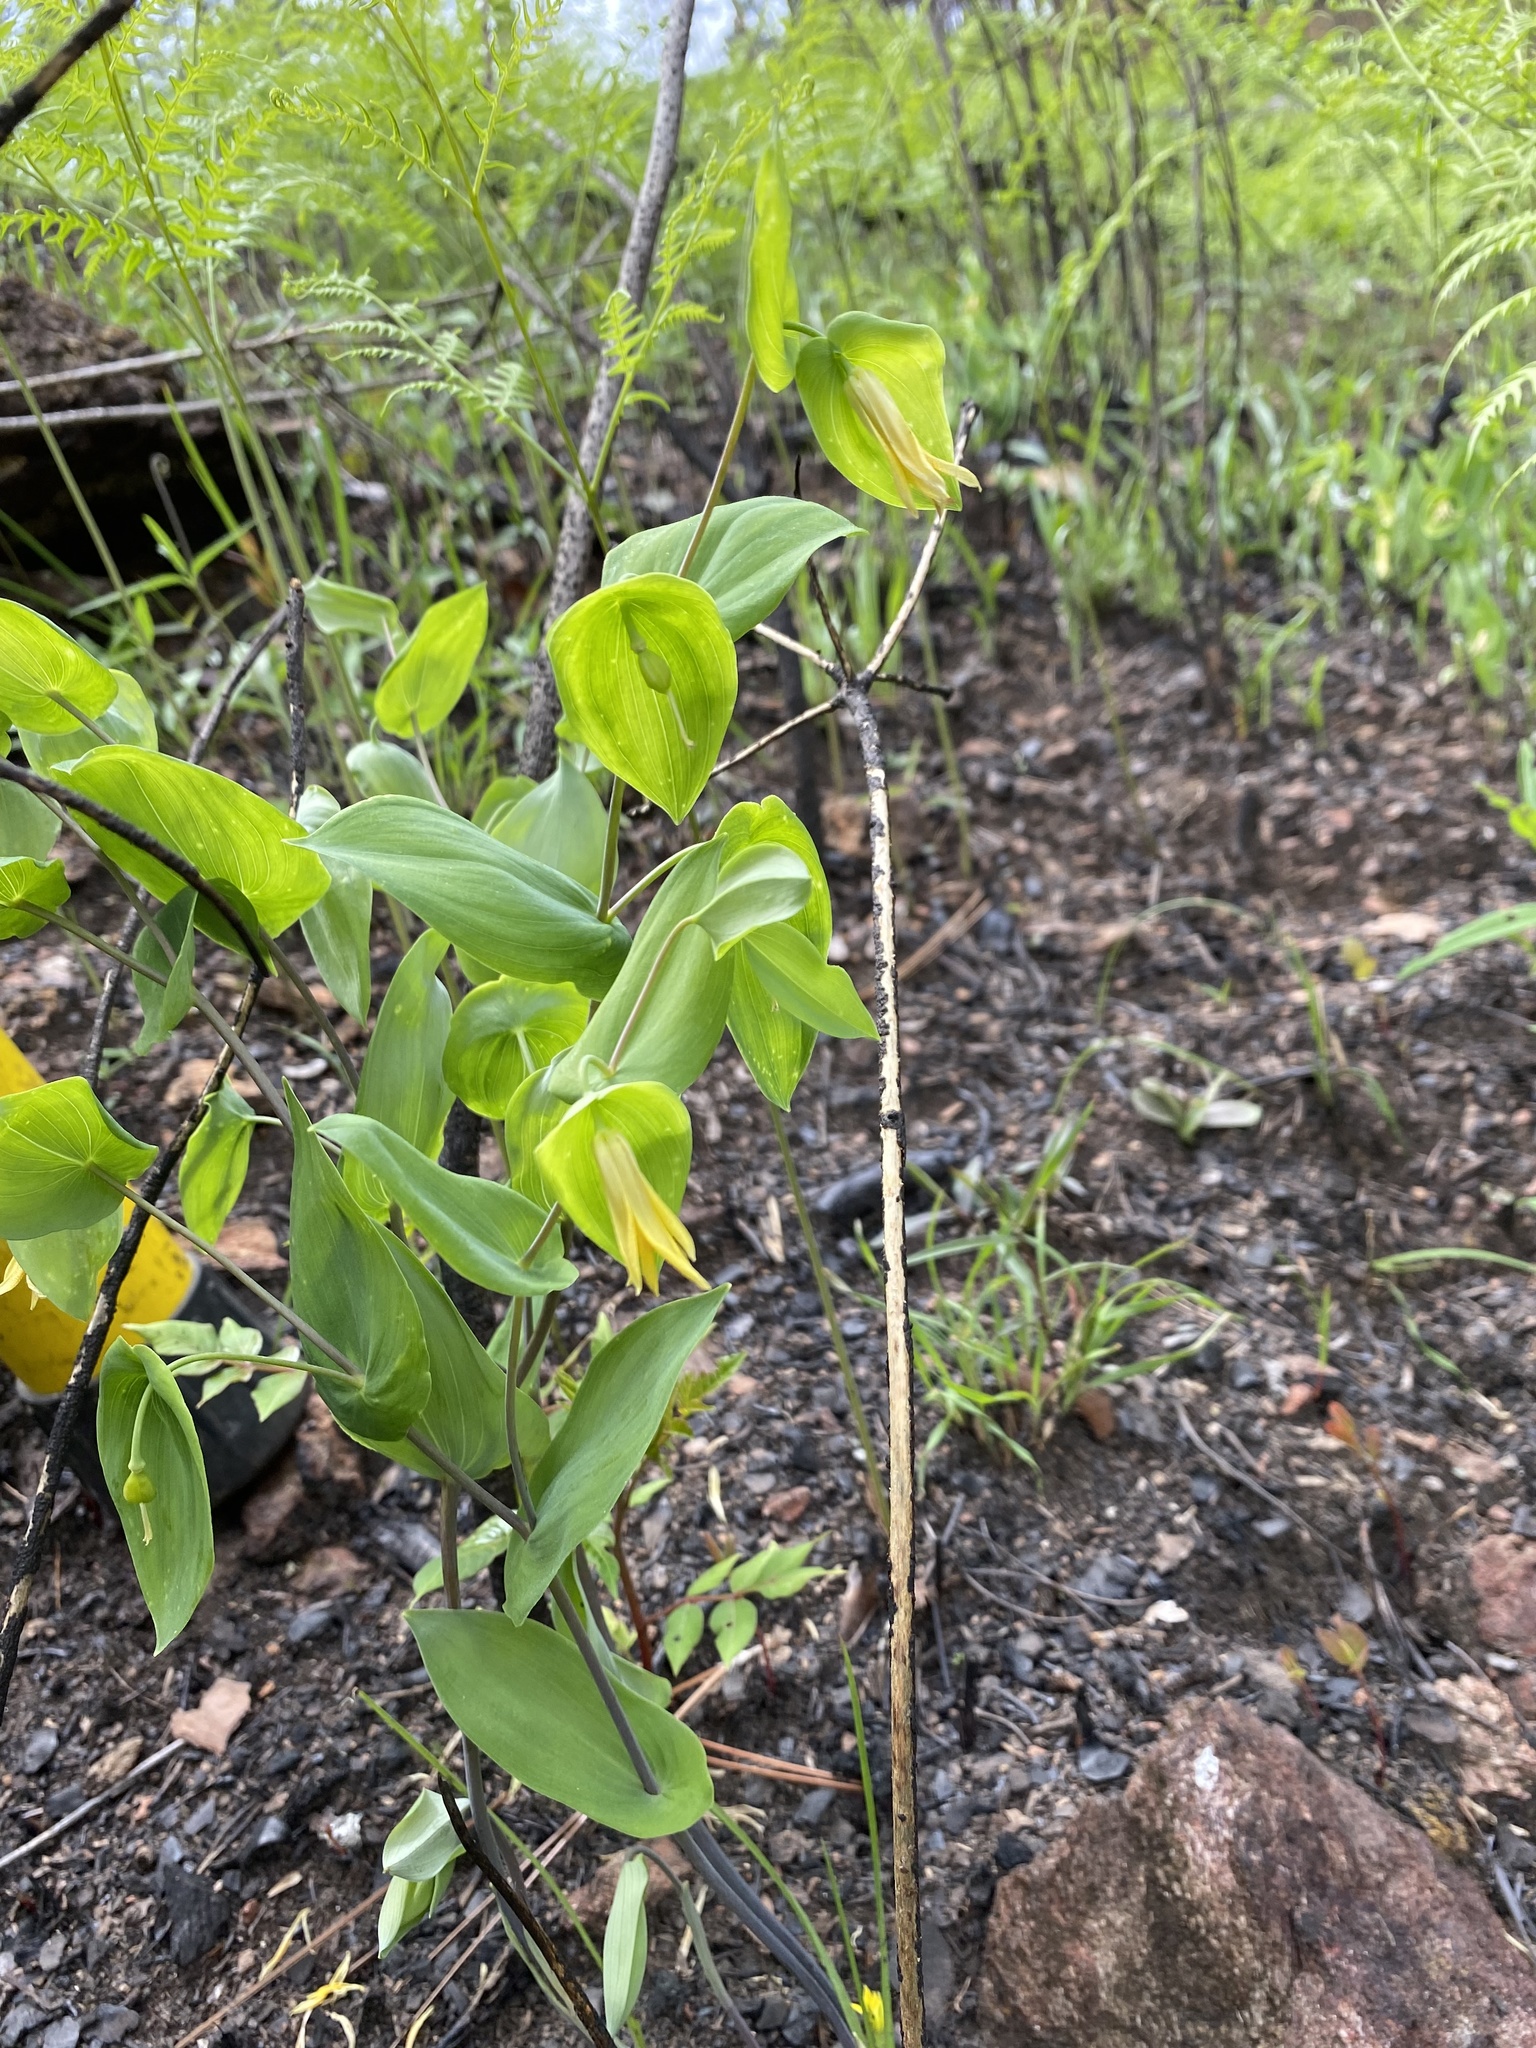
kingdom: Plantae
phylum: Tracheophyta
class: Liliopsida
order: Liliales
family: Colchicaceae
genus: Uvularia
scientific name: Uvularia perfoliata
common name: Perfoliate bellwort
